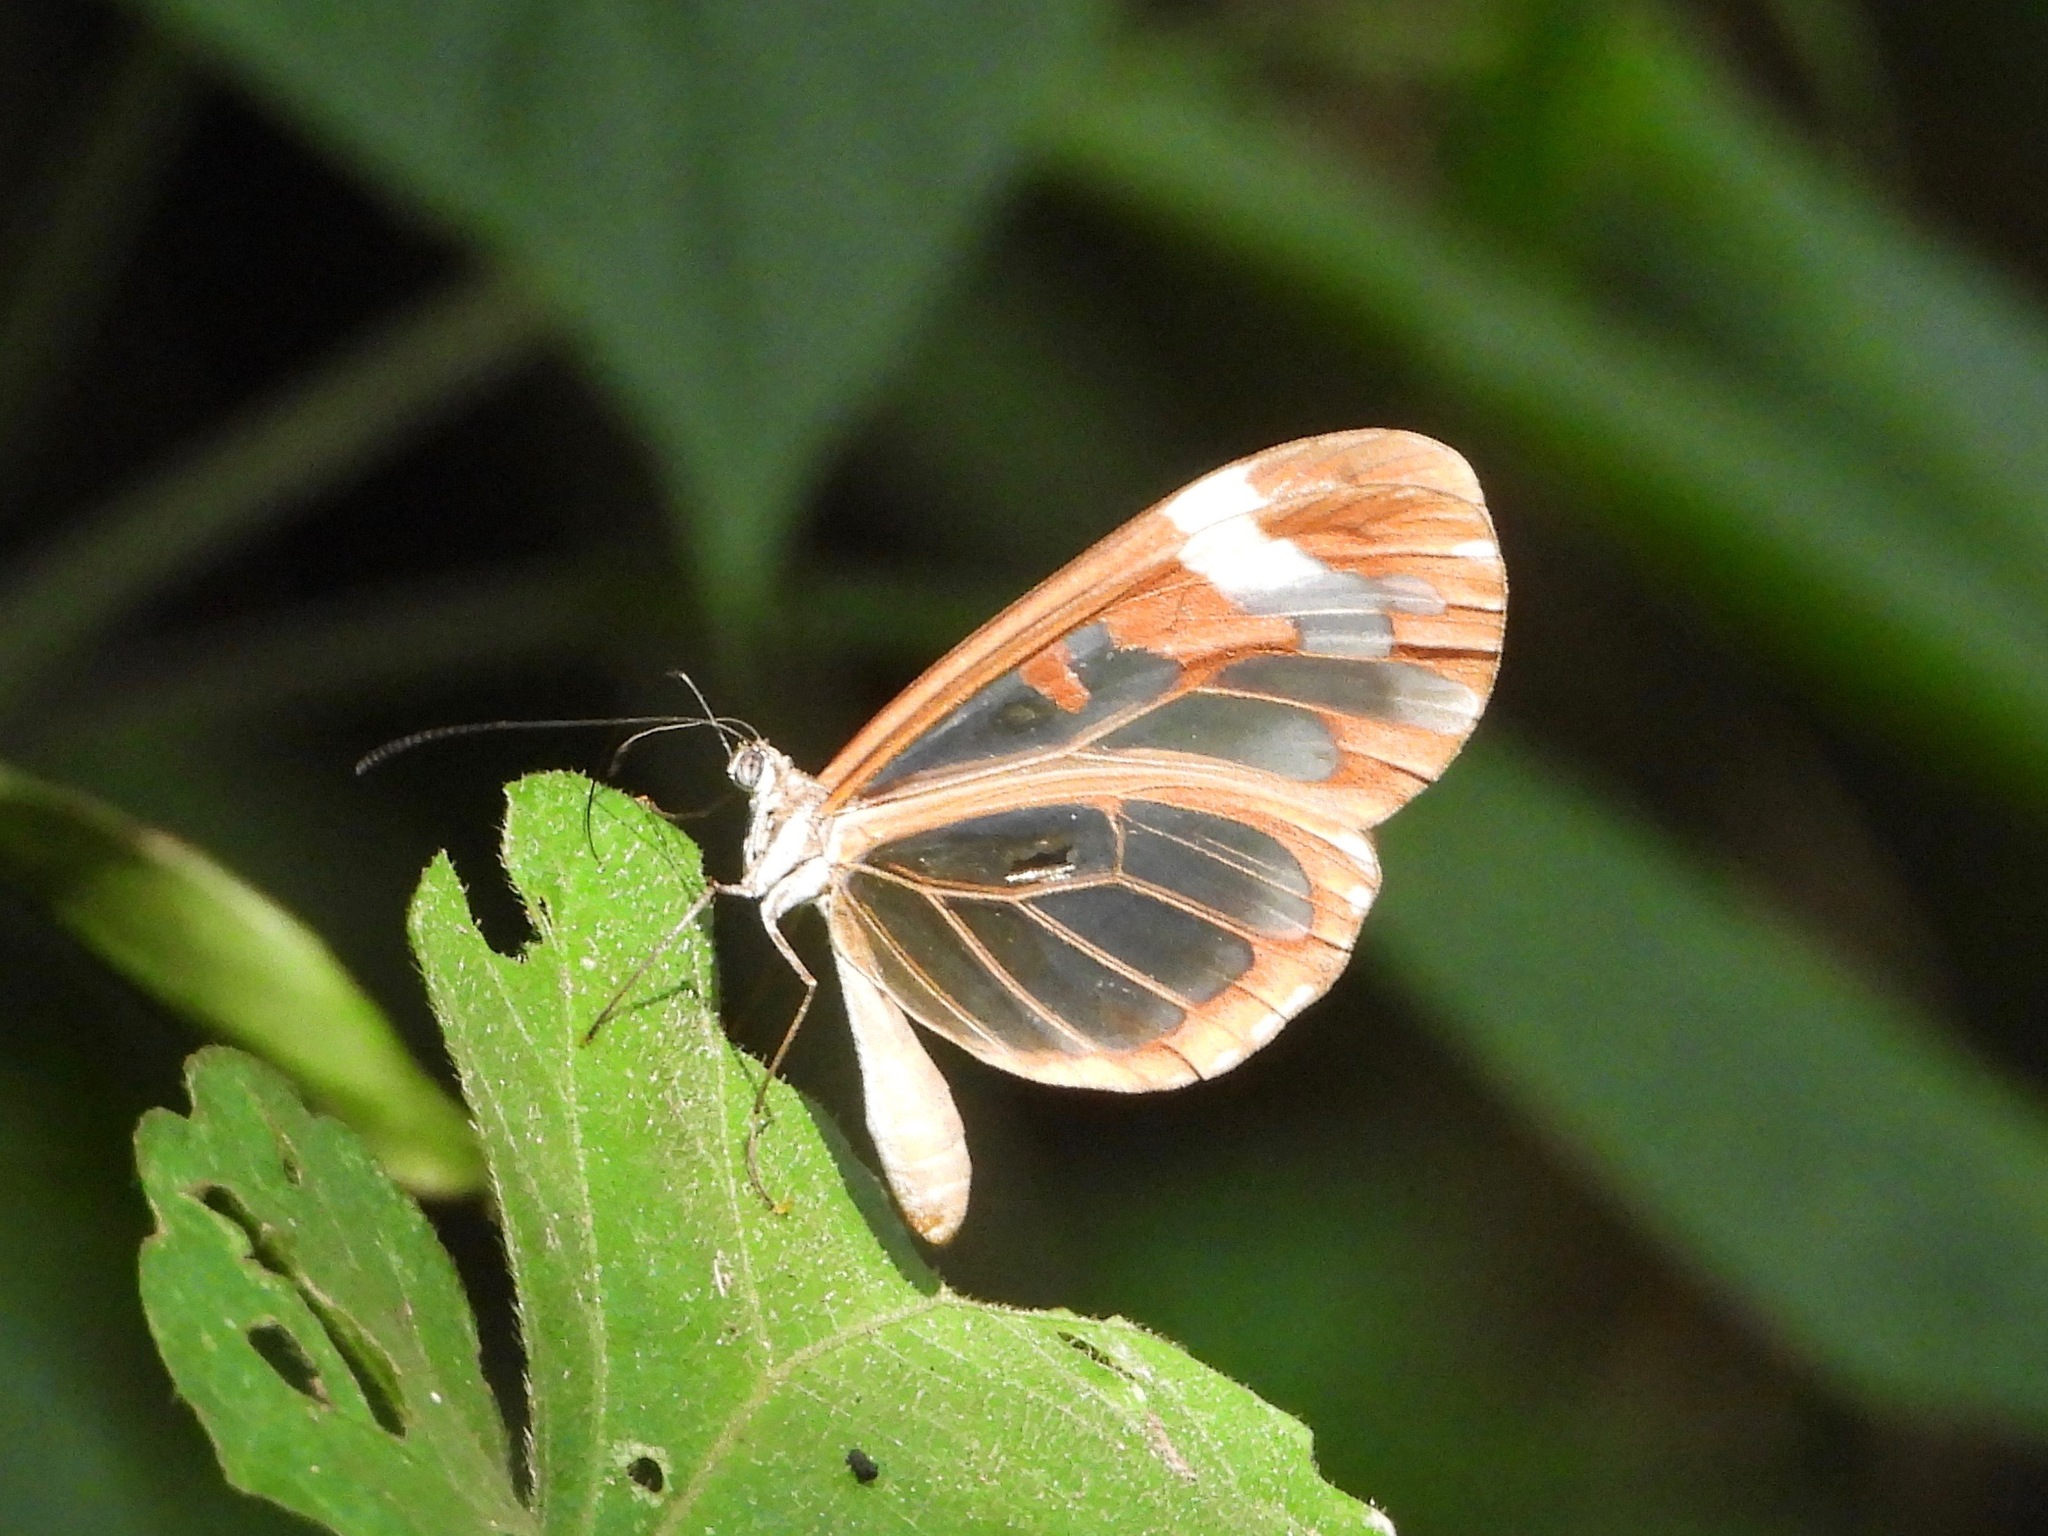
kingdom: Animalia
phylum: Arthropoda
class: Insecta
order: Lepidoptera
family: Nymphalidae
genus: Oleria
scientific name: Oleria zea
